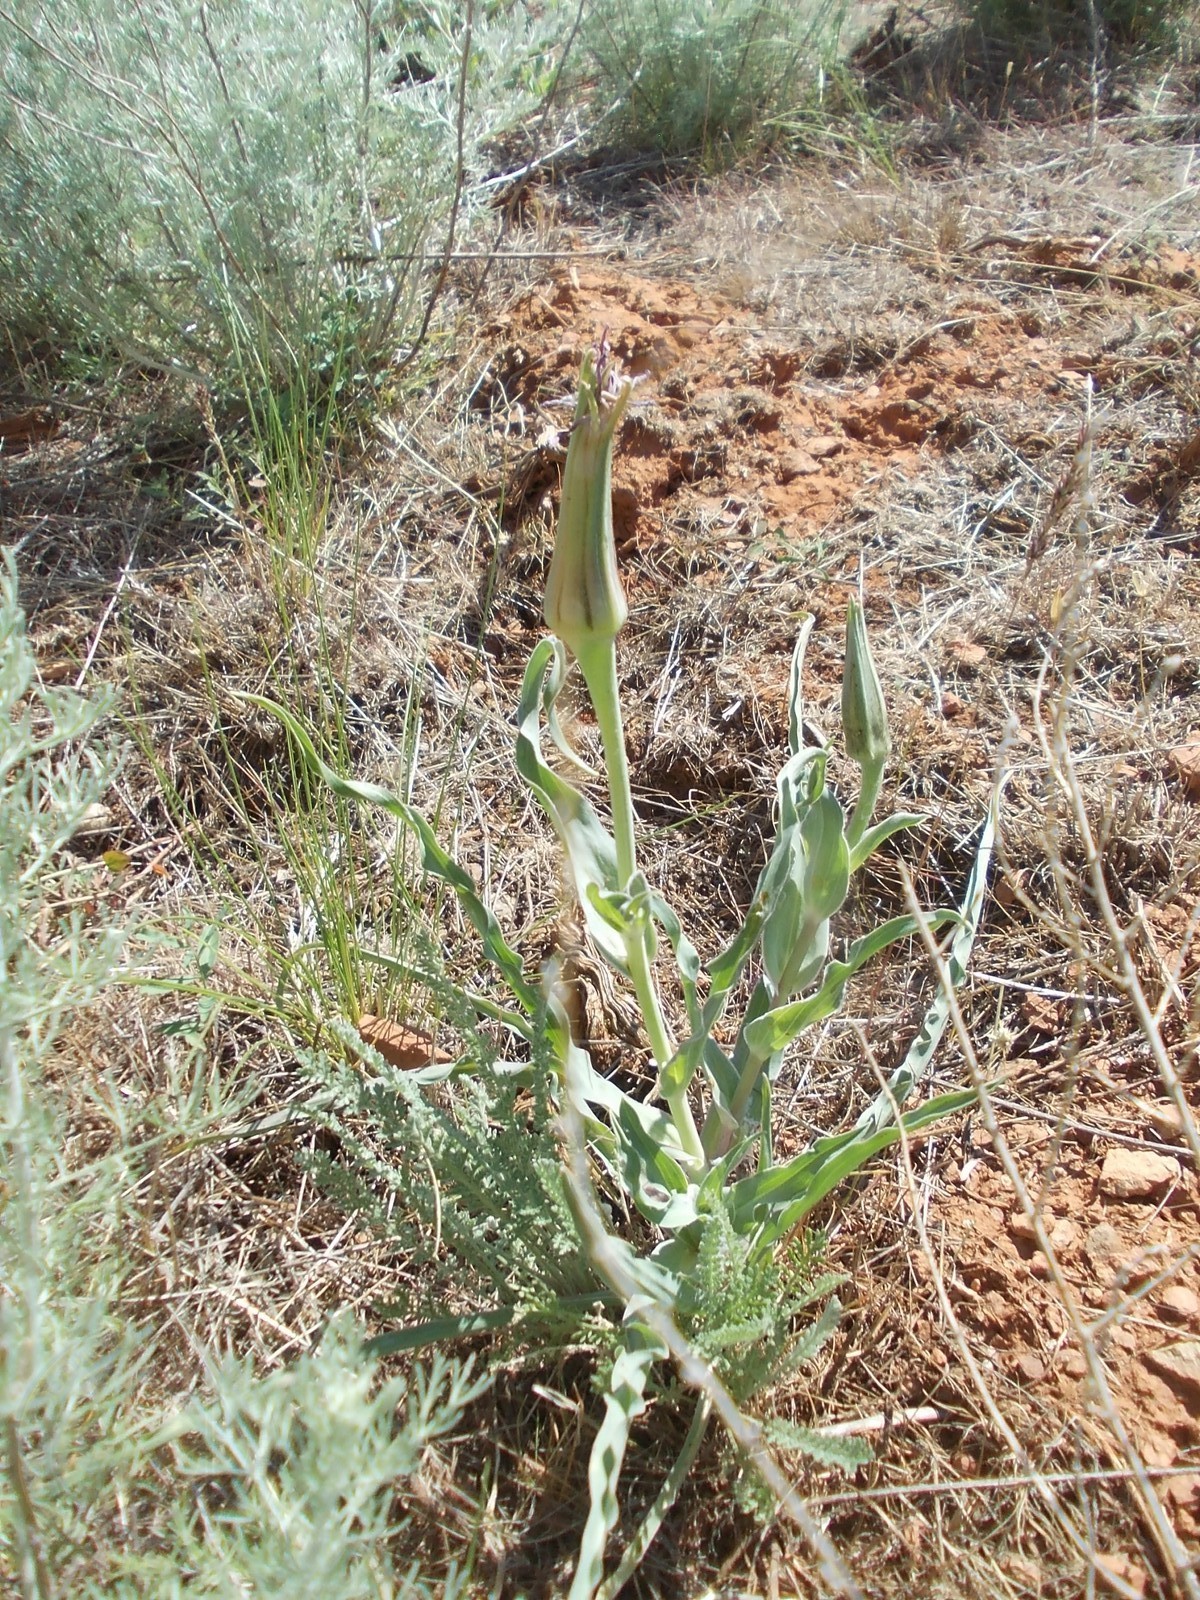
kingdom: Plantae
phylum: Tracheophyta
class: Magnoliopsida
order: Asterales
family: Asteraceae
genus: Tragopogon
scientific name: Tragopogon marginifolius
